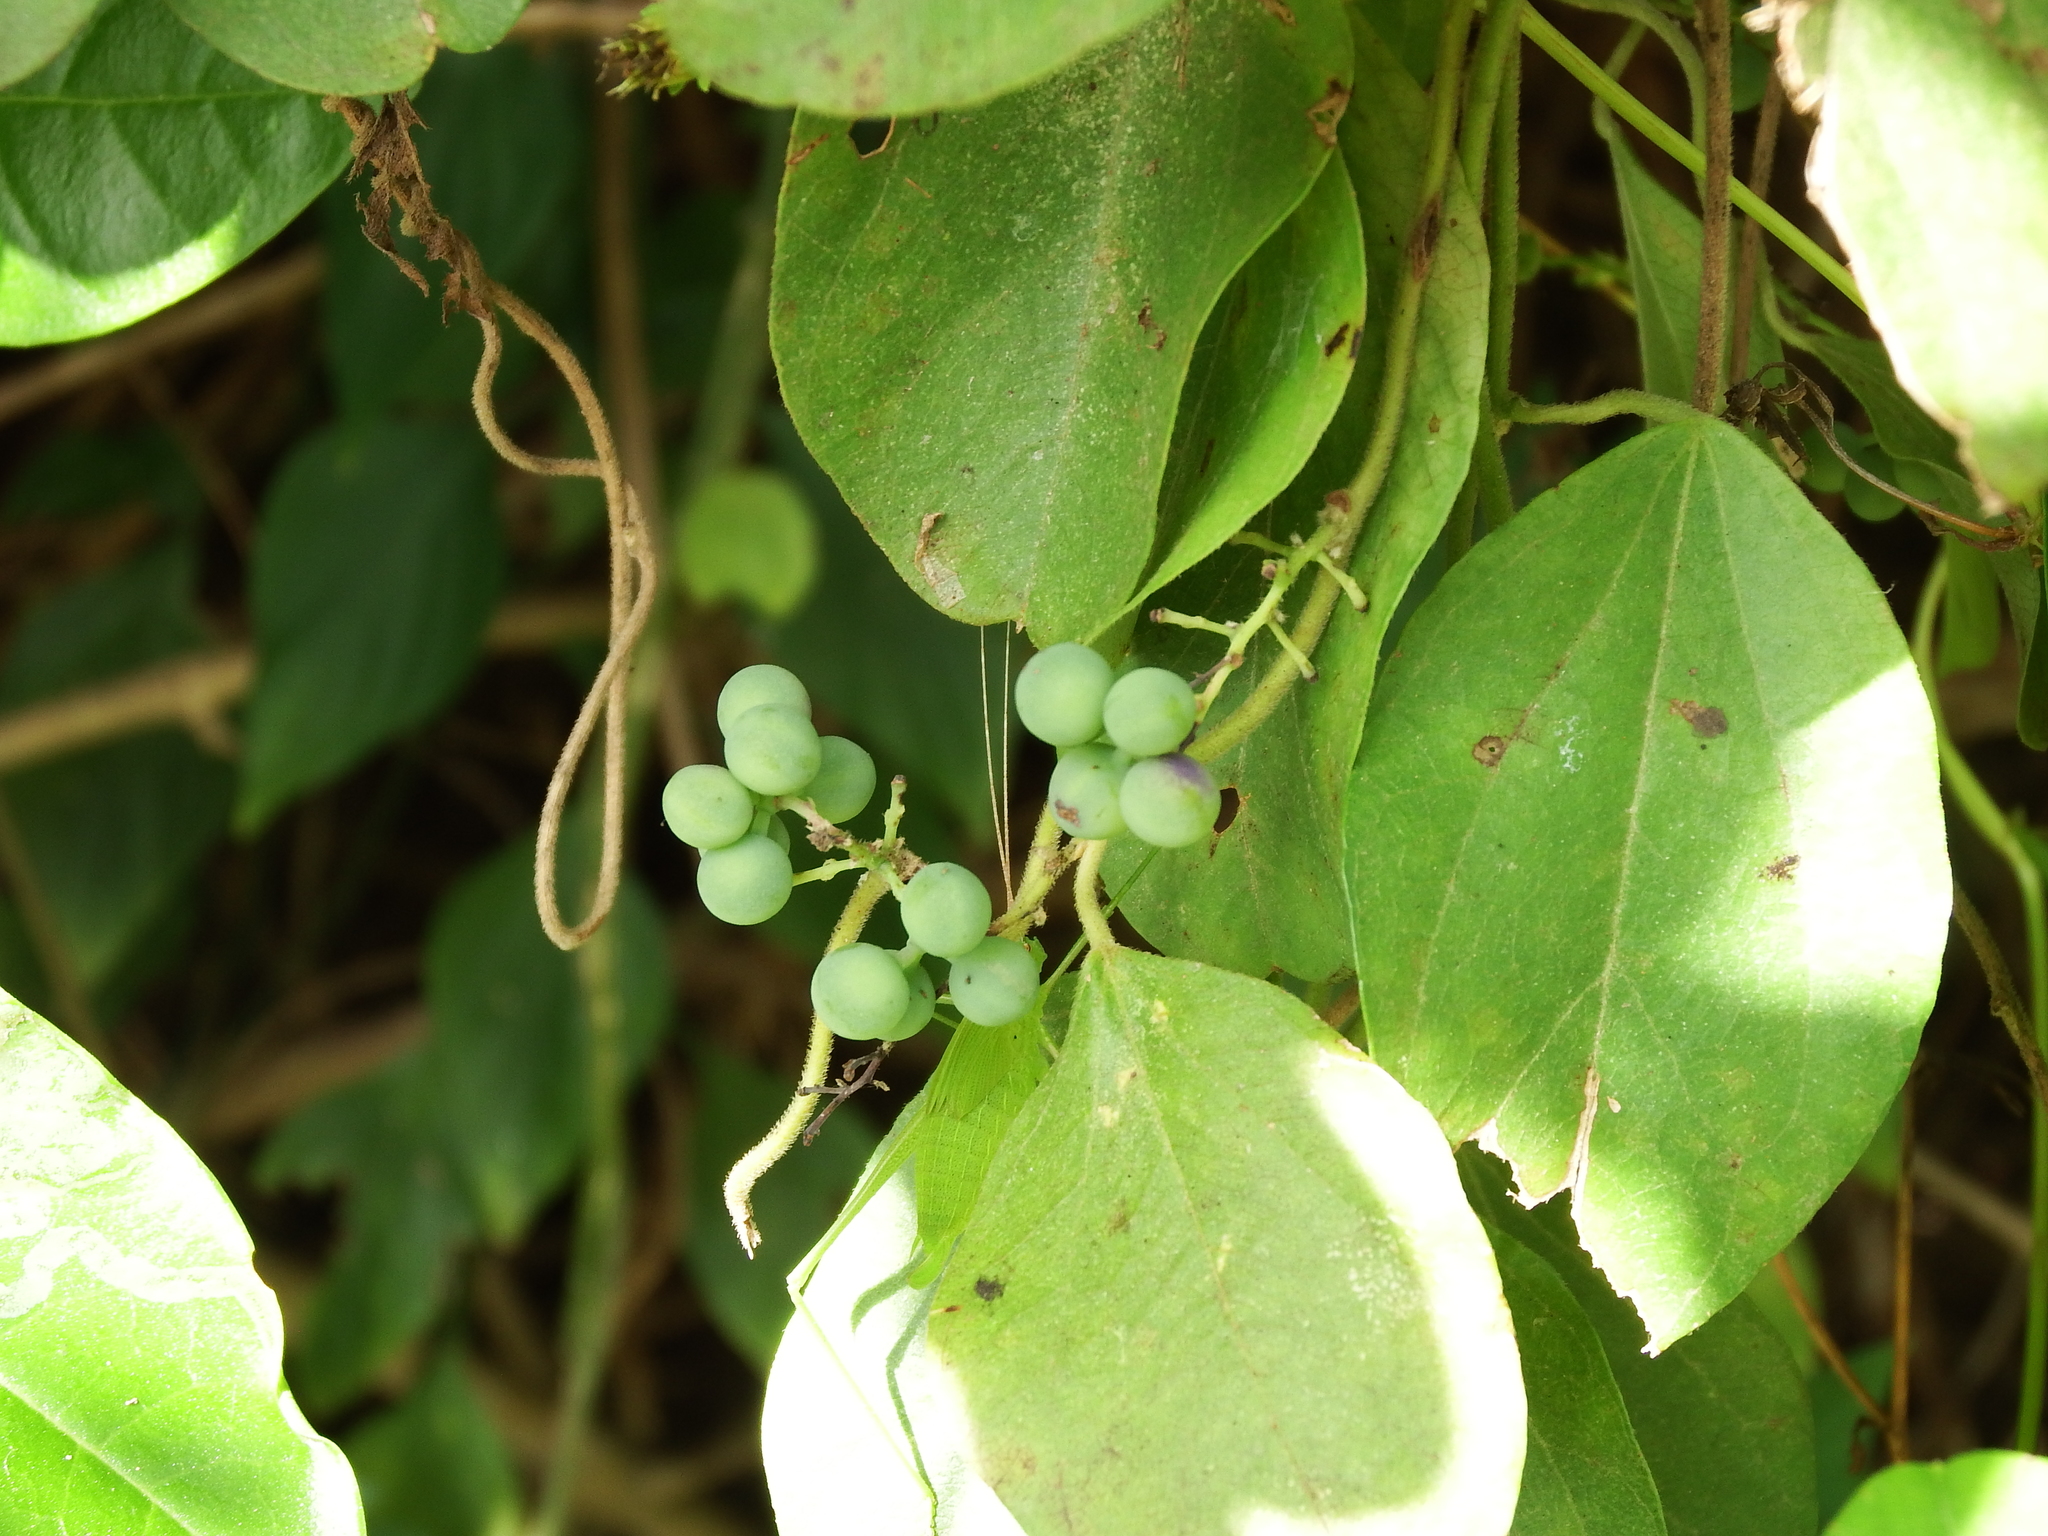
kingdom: Plantae
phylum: Tracheophyta
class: Magnoliopsida
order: Ranunculales
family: Menispermaceae
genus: Cocculus
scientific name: Cocculus orbiculatus
